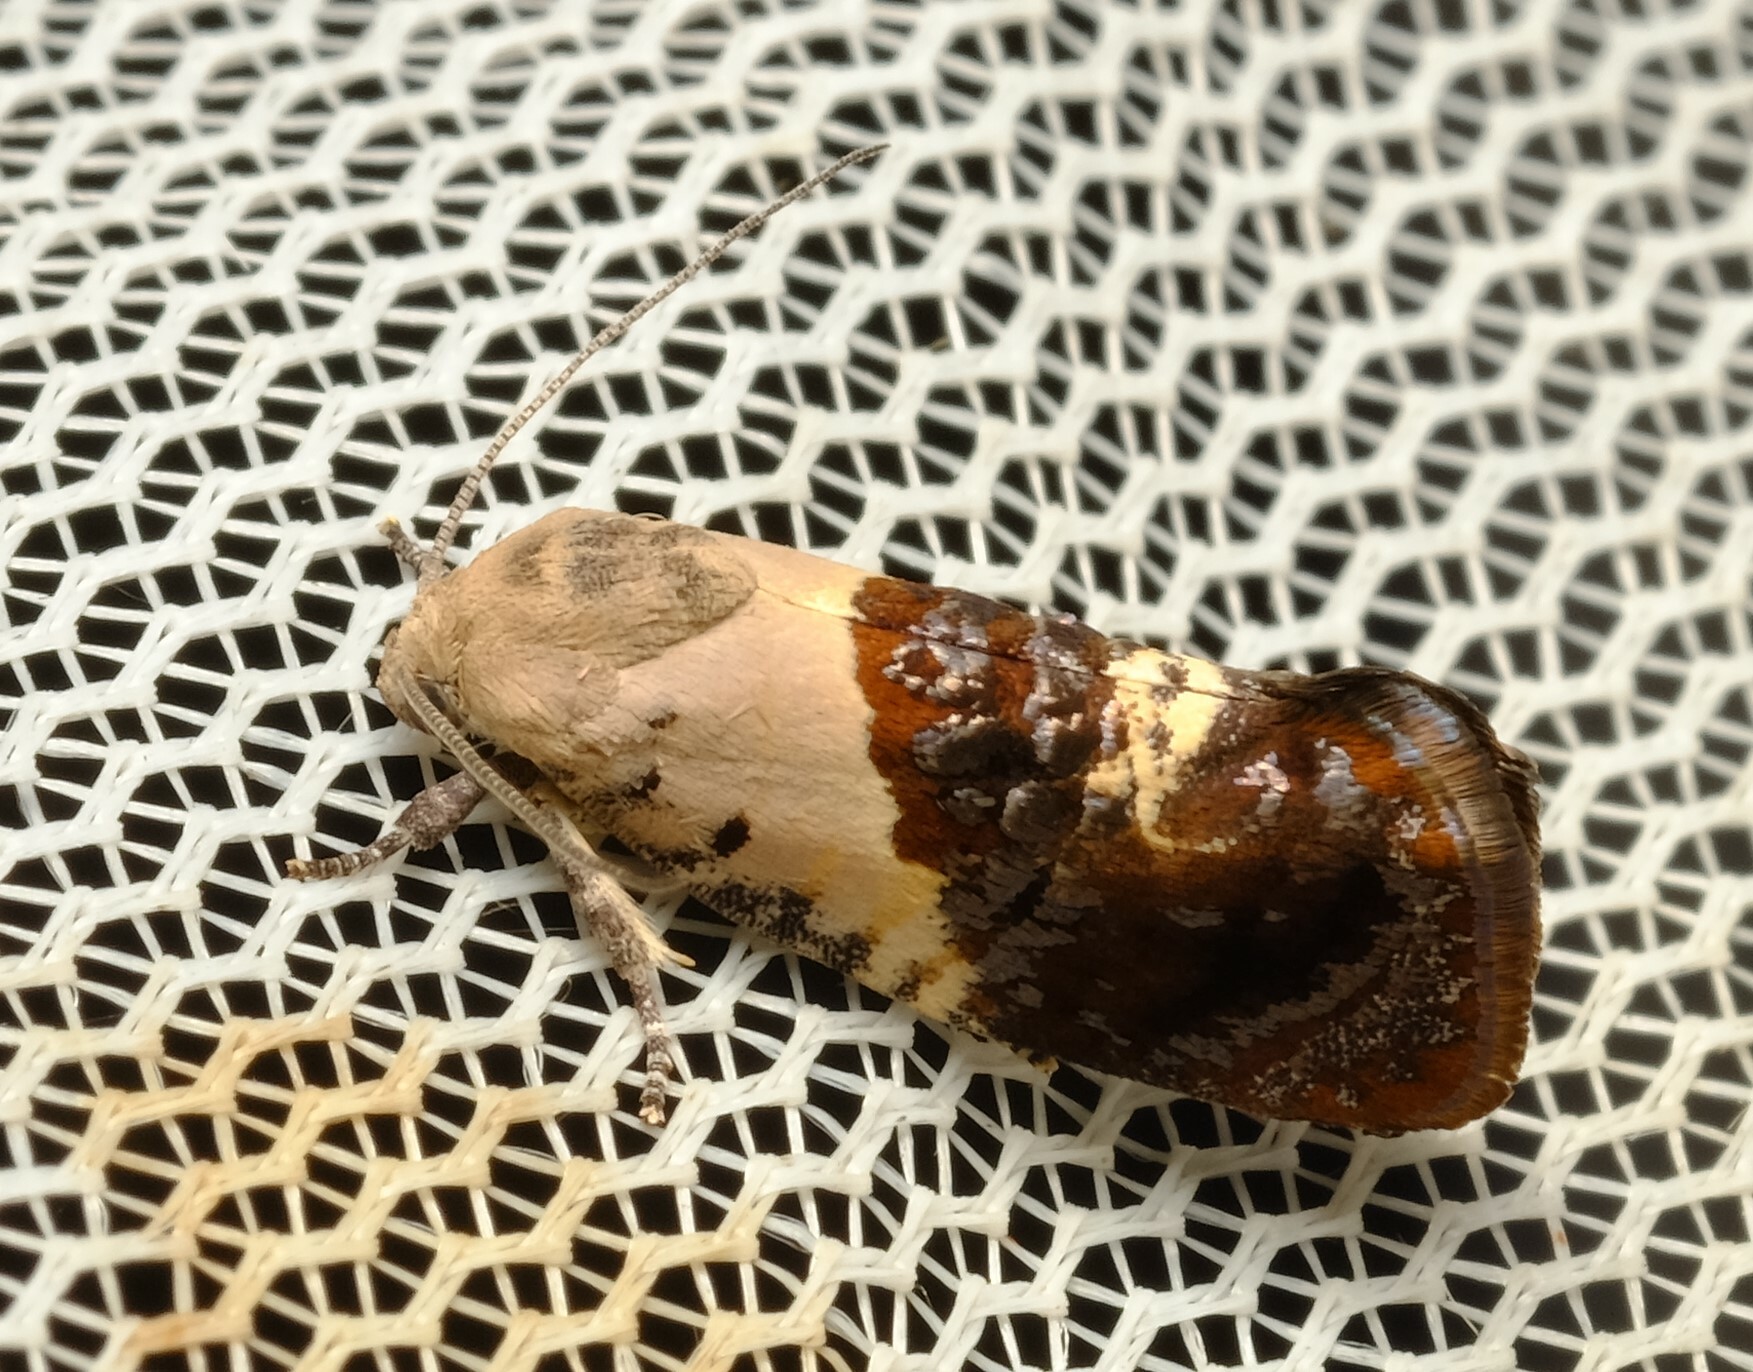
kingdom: Animalia
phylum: Arthropoda
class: Insecta
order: Lepidoptera
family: Depressariidae
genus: Hypertropha
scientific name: Hypertropha chlaenota
